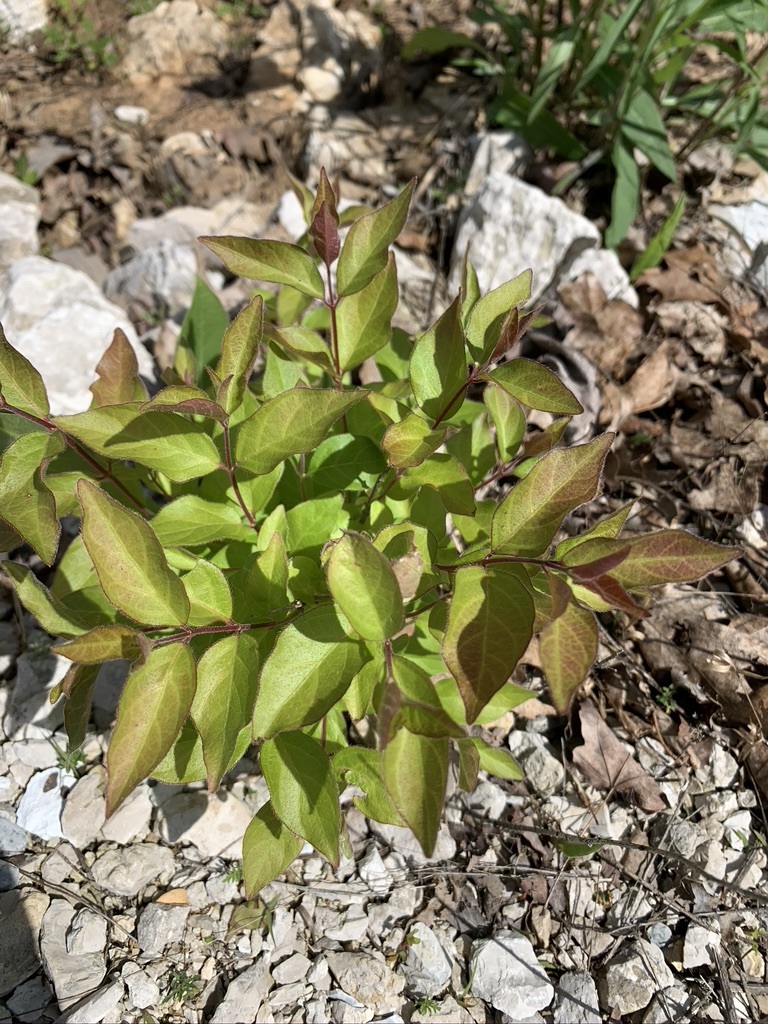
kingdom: Plantae
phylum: Tracheophyta
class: Magnoliopsida
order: Dipsacales
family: Caprifoliaceae
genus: Lonicera
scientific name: Lonicera maackii
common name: Amur honeysuckle
